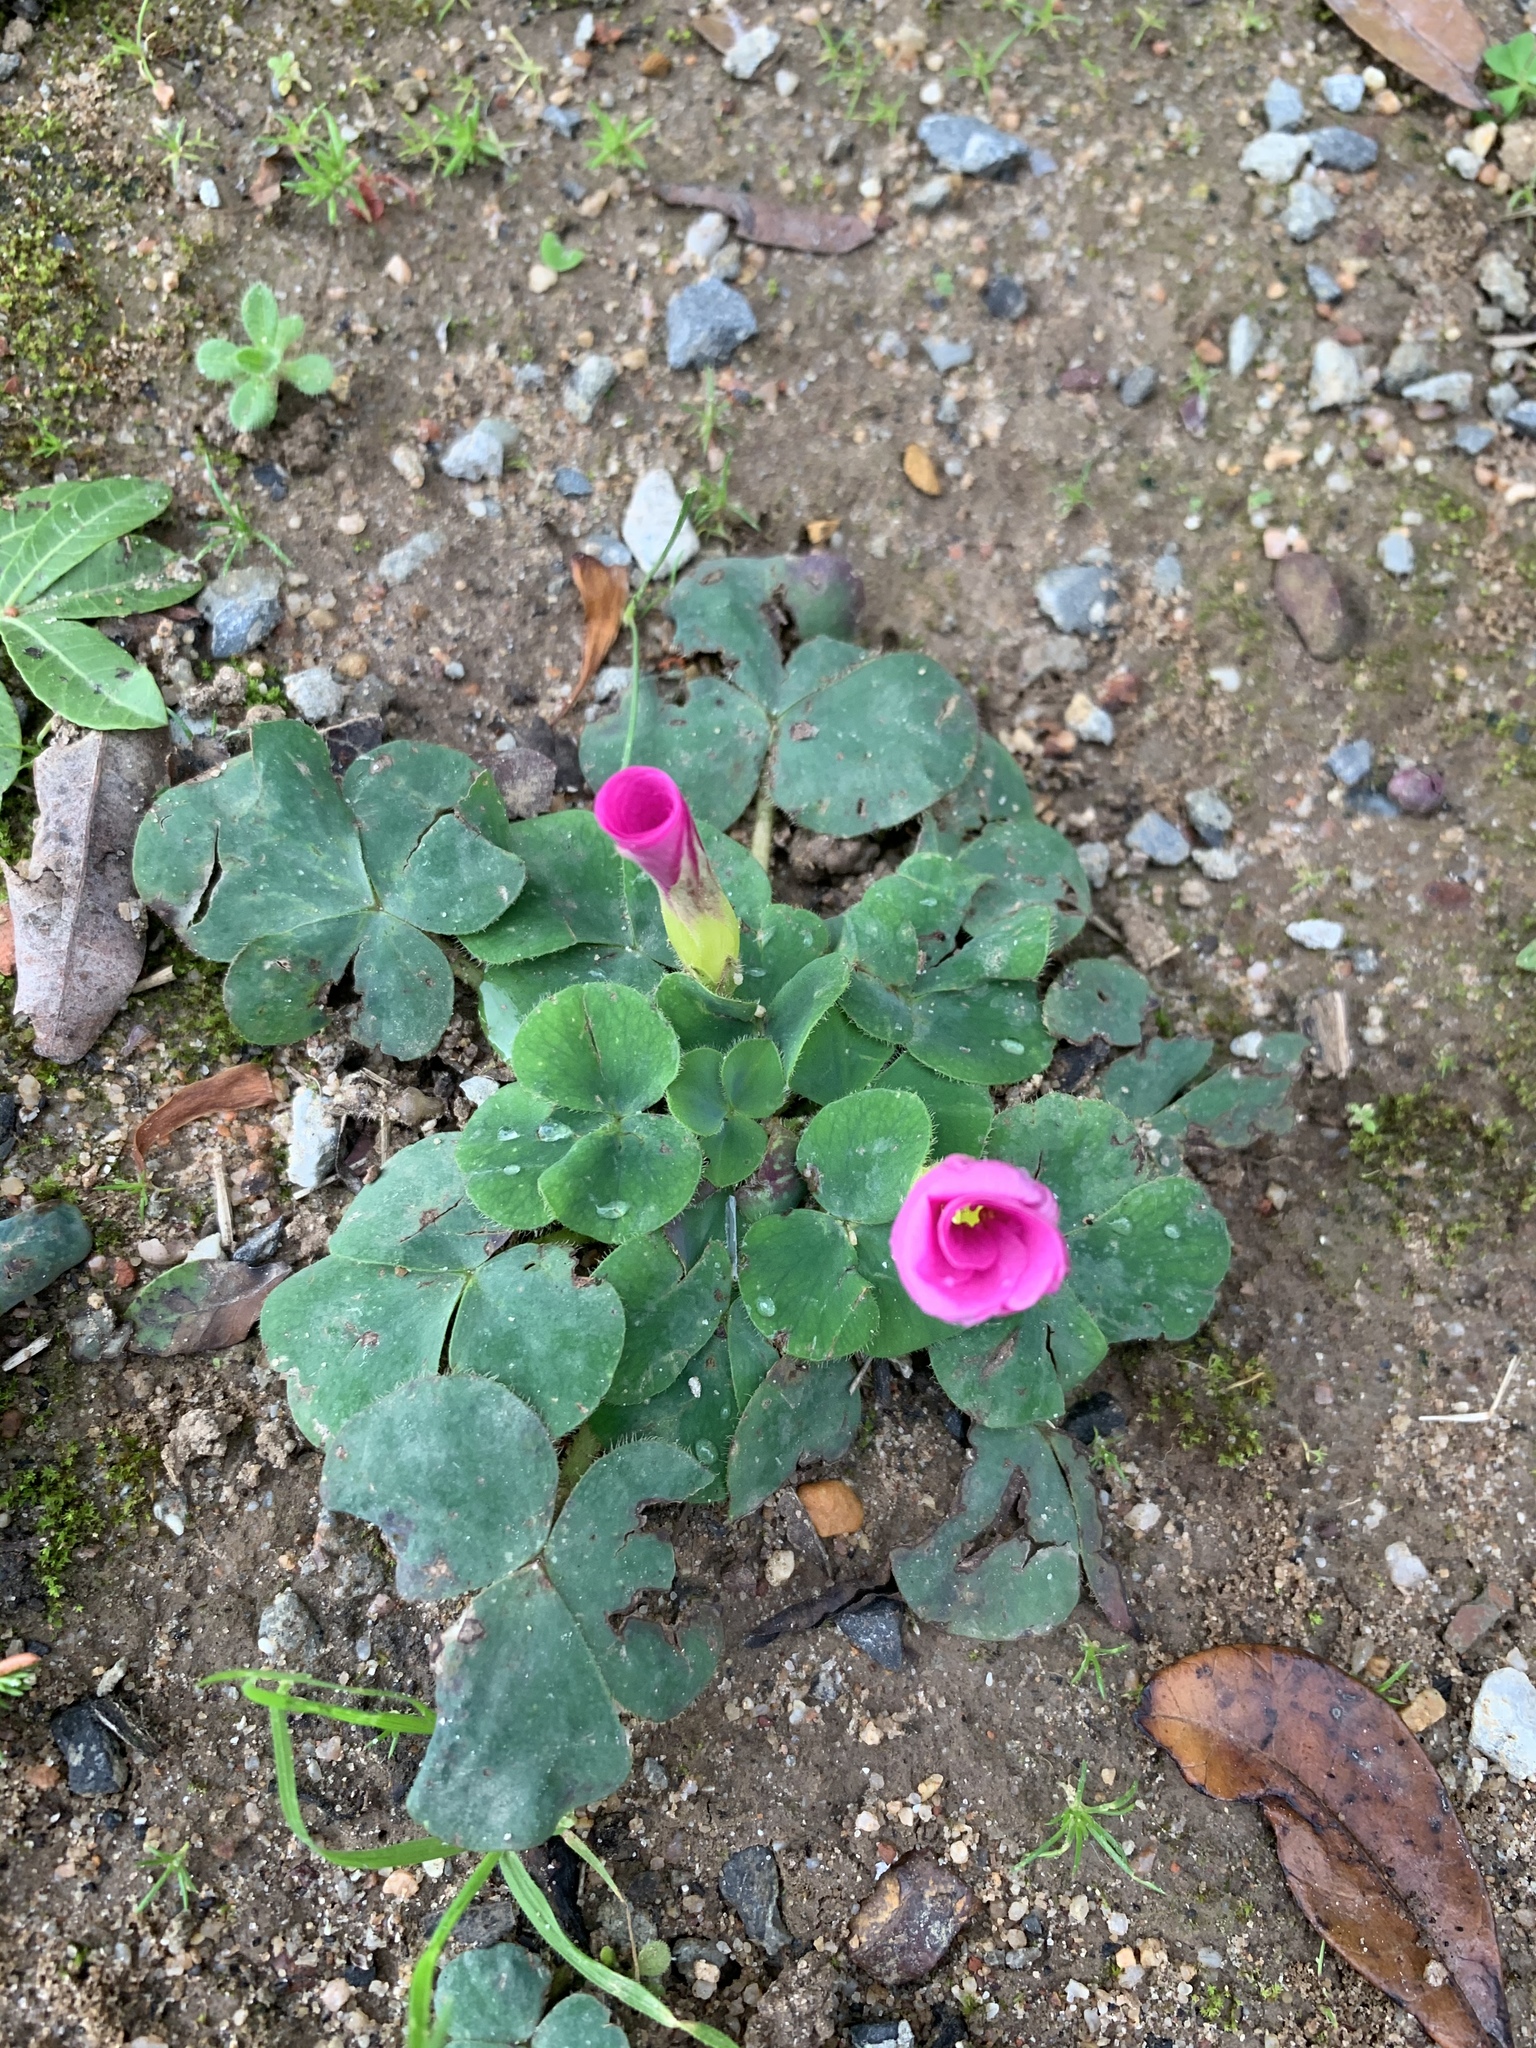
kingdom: Plantae
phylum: Tracheophyta
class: Magnoliopsida
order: Oxalidales
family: Oxalidaceae
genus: Oxalis
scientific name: Oxalis purpurea
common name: Purple woodsorrel
